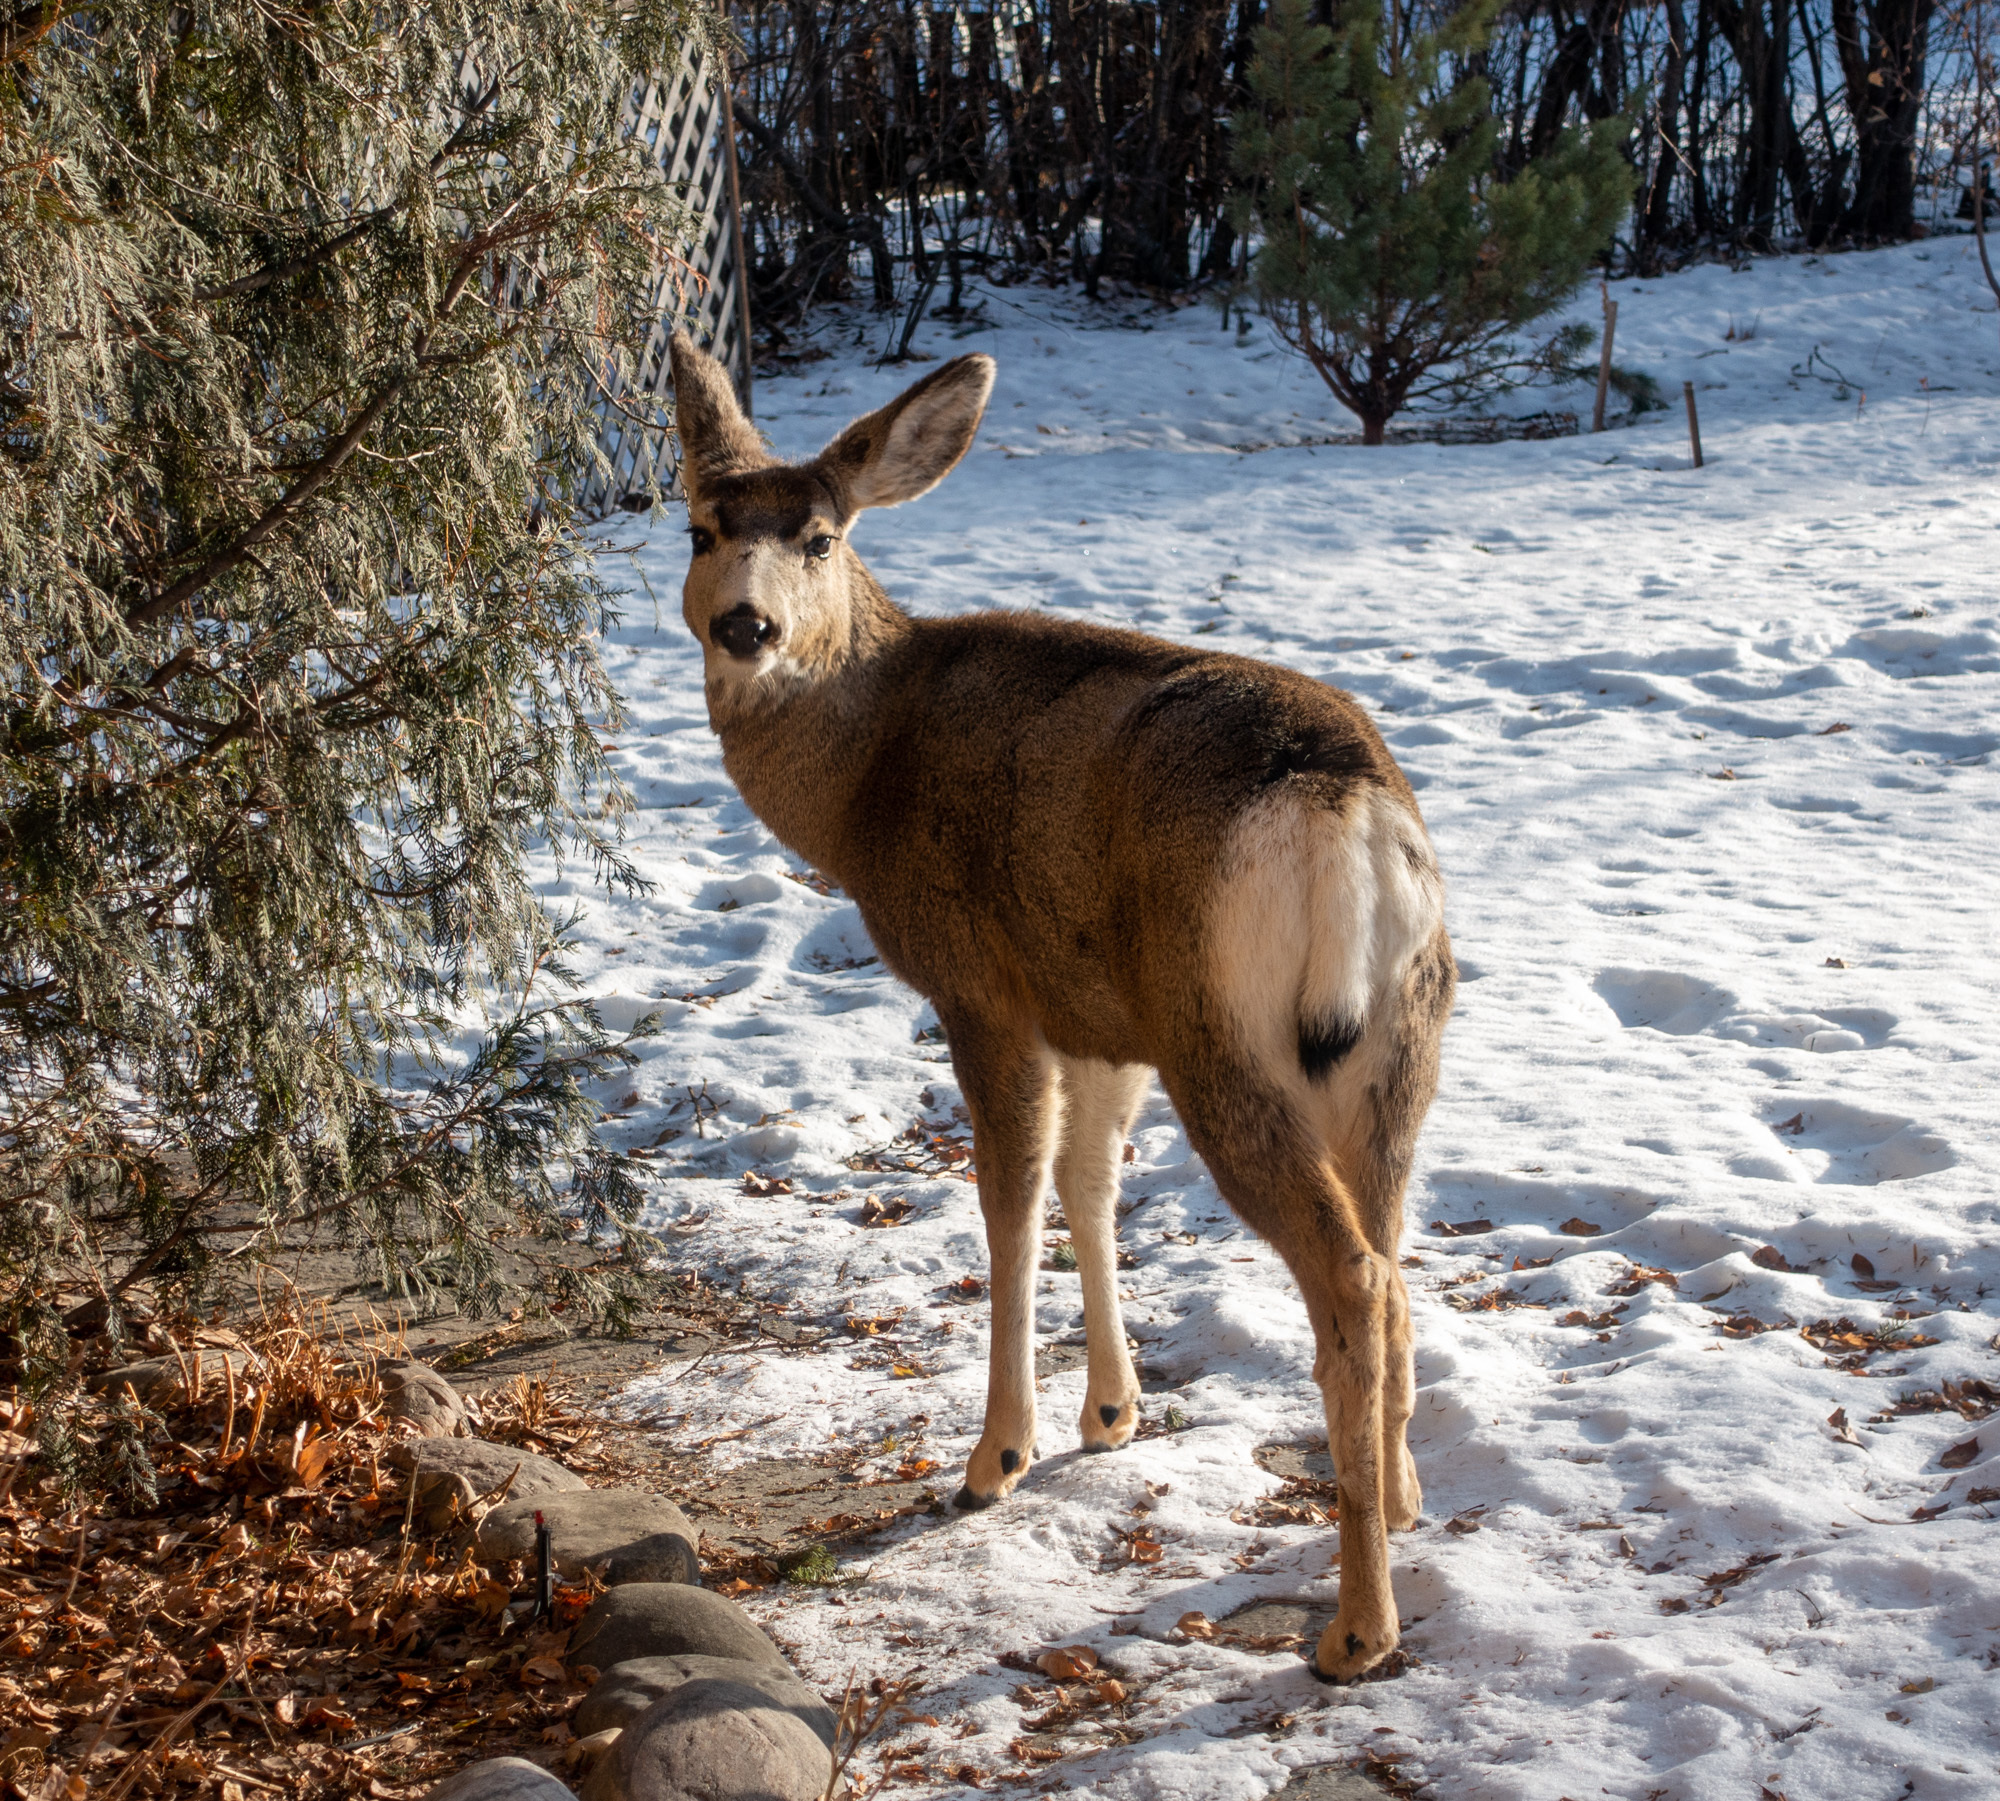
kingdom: Animalia
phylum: Chordata
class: Mammalia
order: Artiodactyla
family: Cervidae
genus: Odocoileus
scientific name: Odocoileus hemionus
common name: Mule deer
